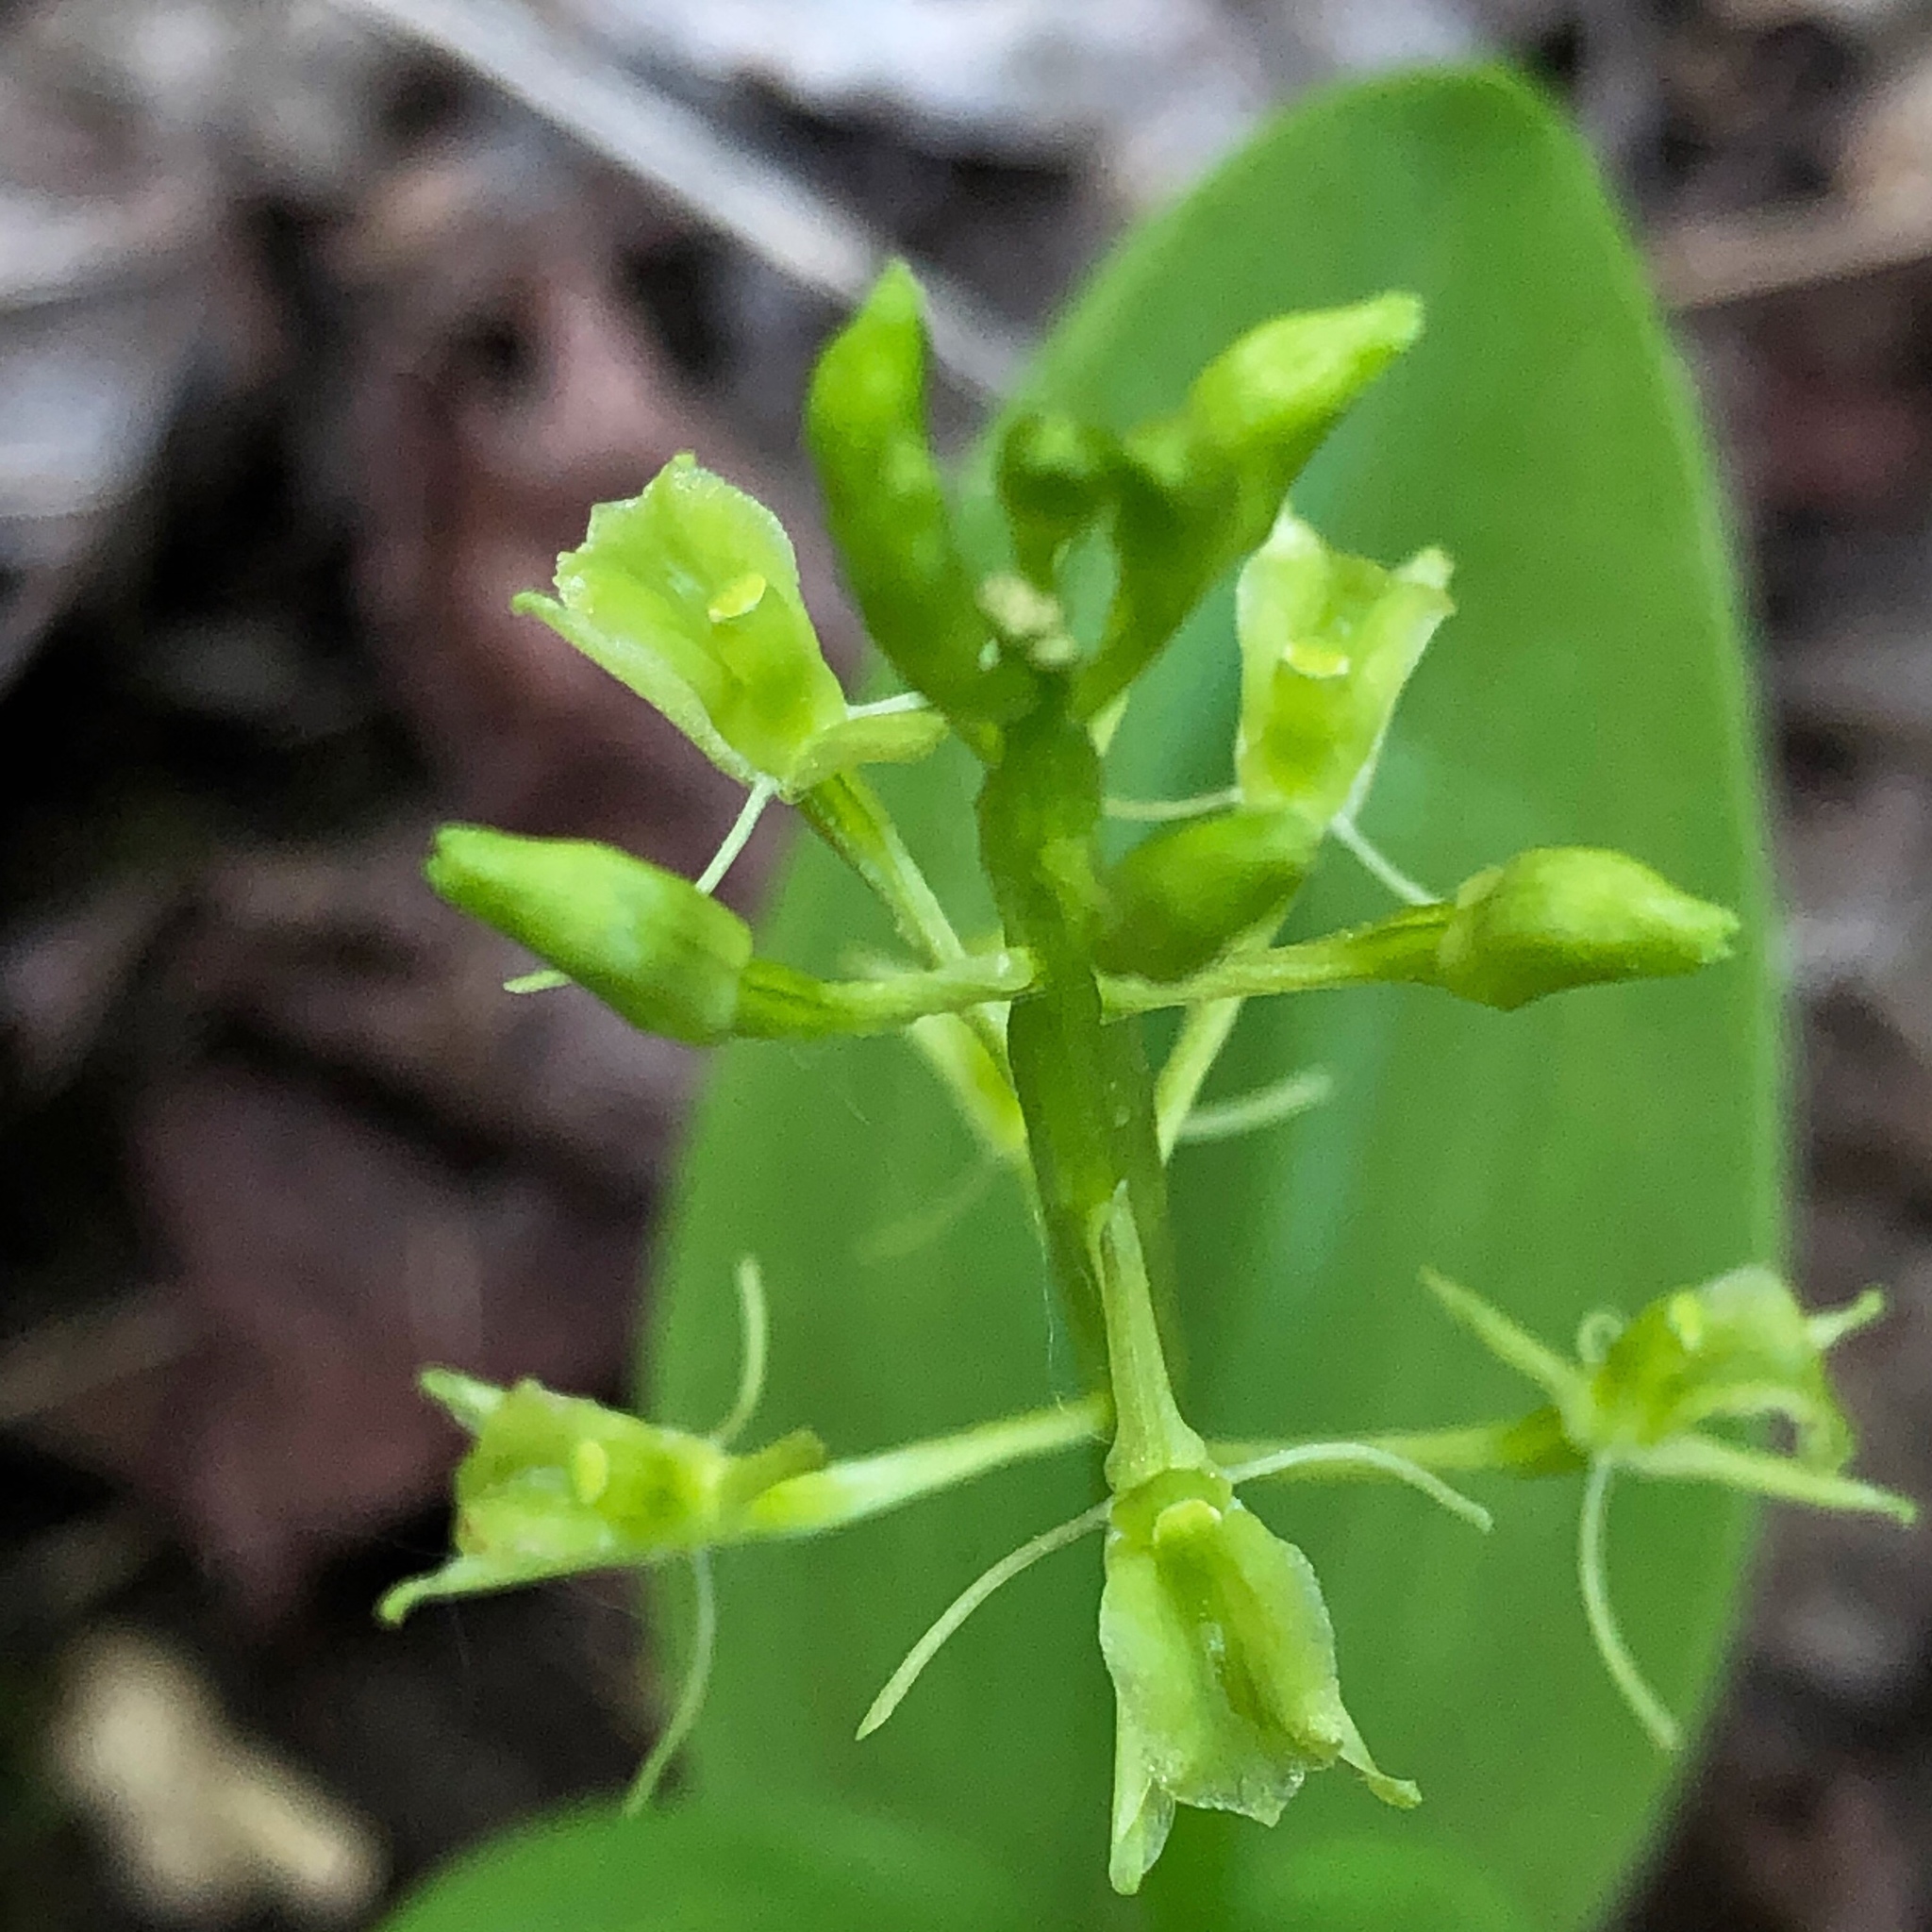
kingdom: Animalia
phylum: Arthropoda
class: Insecta
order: Coleoptera
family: Curculionidae
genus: Liparis
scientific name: Liparis loeselii
